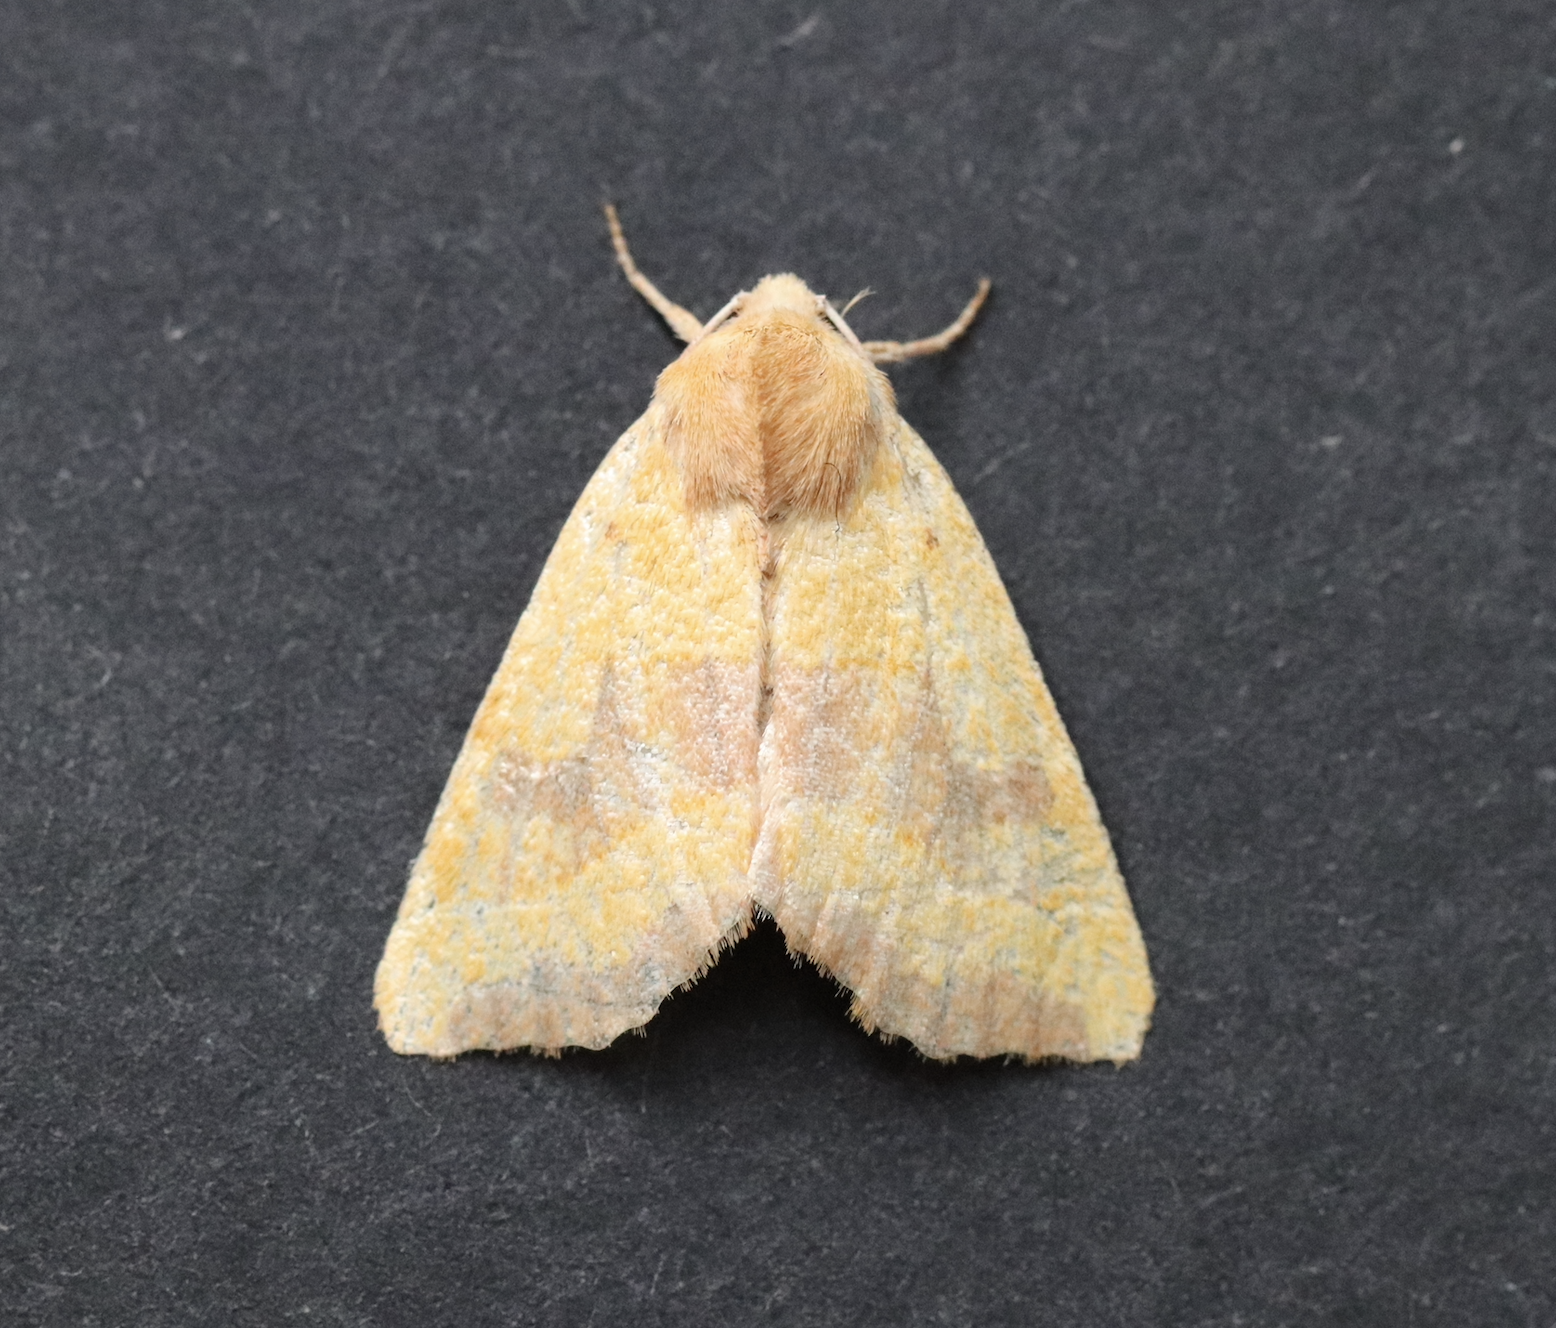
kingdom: Animalia
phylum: Arthropoda
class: Insecta
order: Lepidoptera
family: Noctuidae
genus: Atethmia
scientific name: Atethmia centrago
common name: Centre-barred sallow
